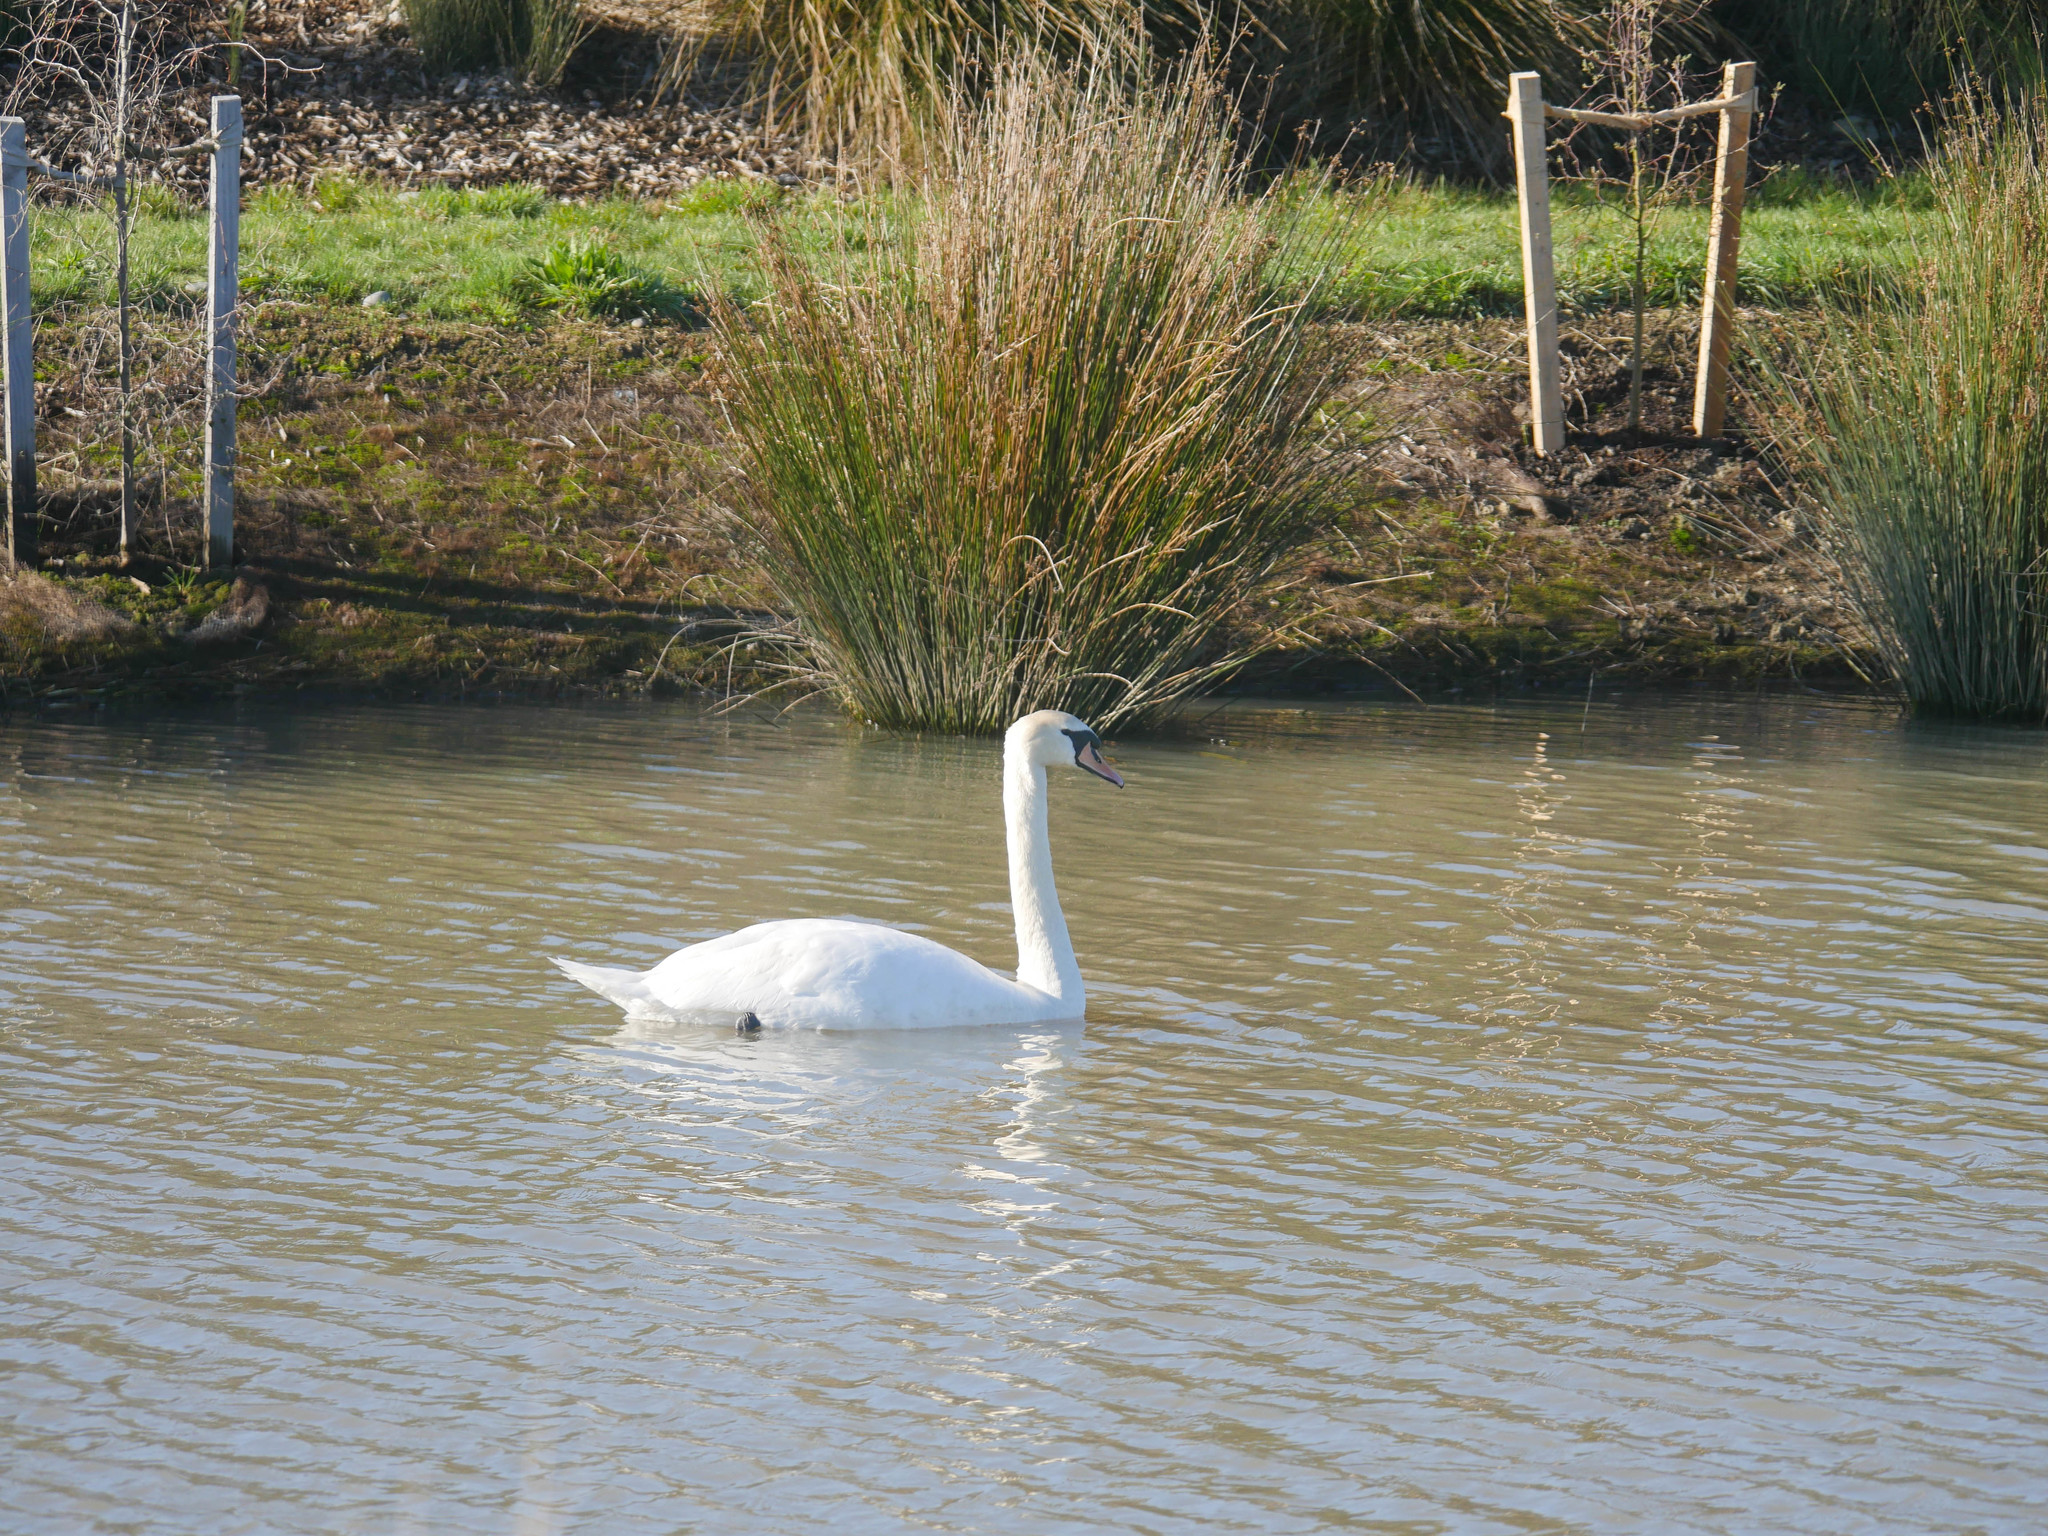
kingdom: Animalia
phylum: Chordata
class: Aves
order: Anseriformes
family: Anatidae
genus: Cygnus
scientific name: Cygnus olor
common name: Mute swan
